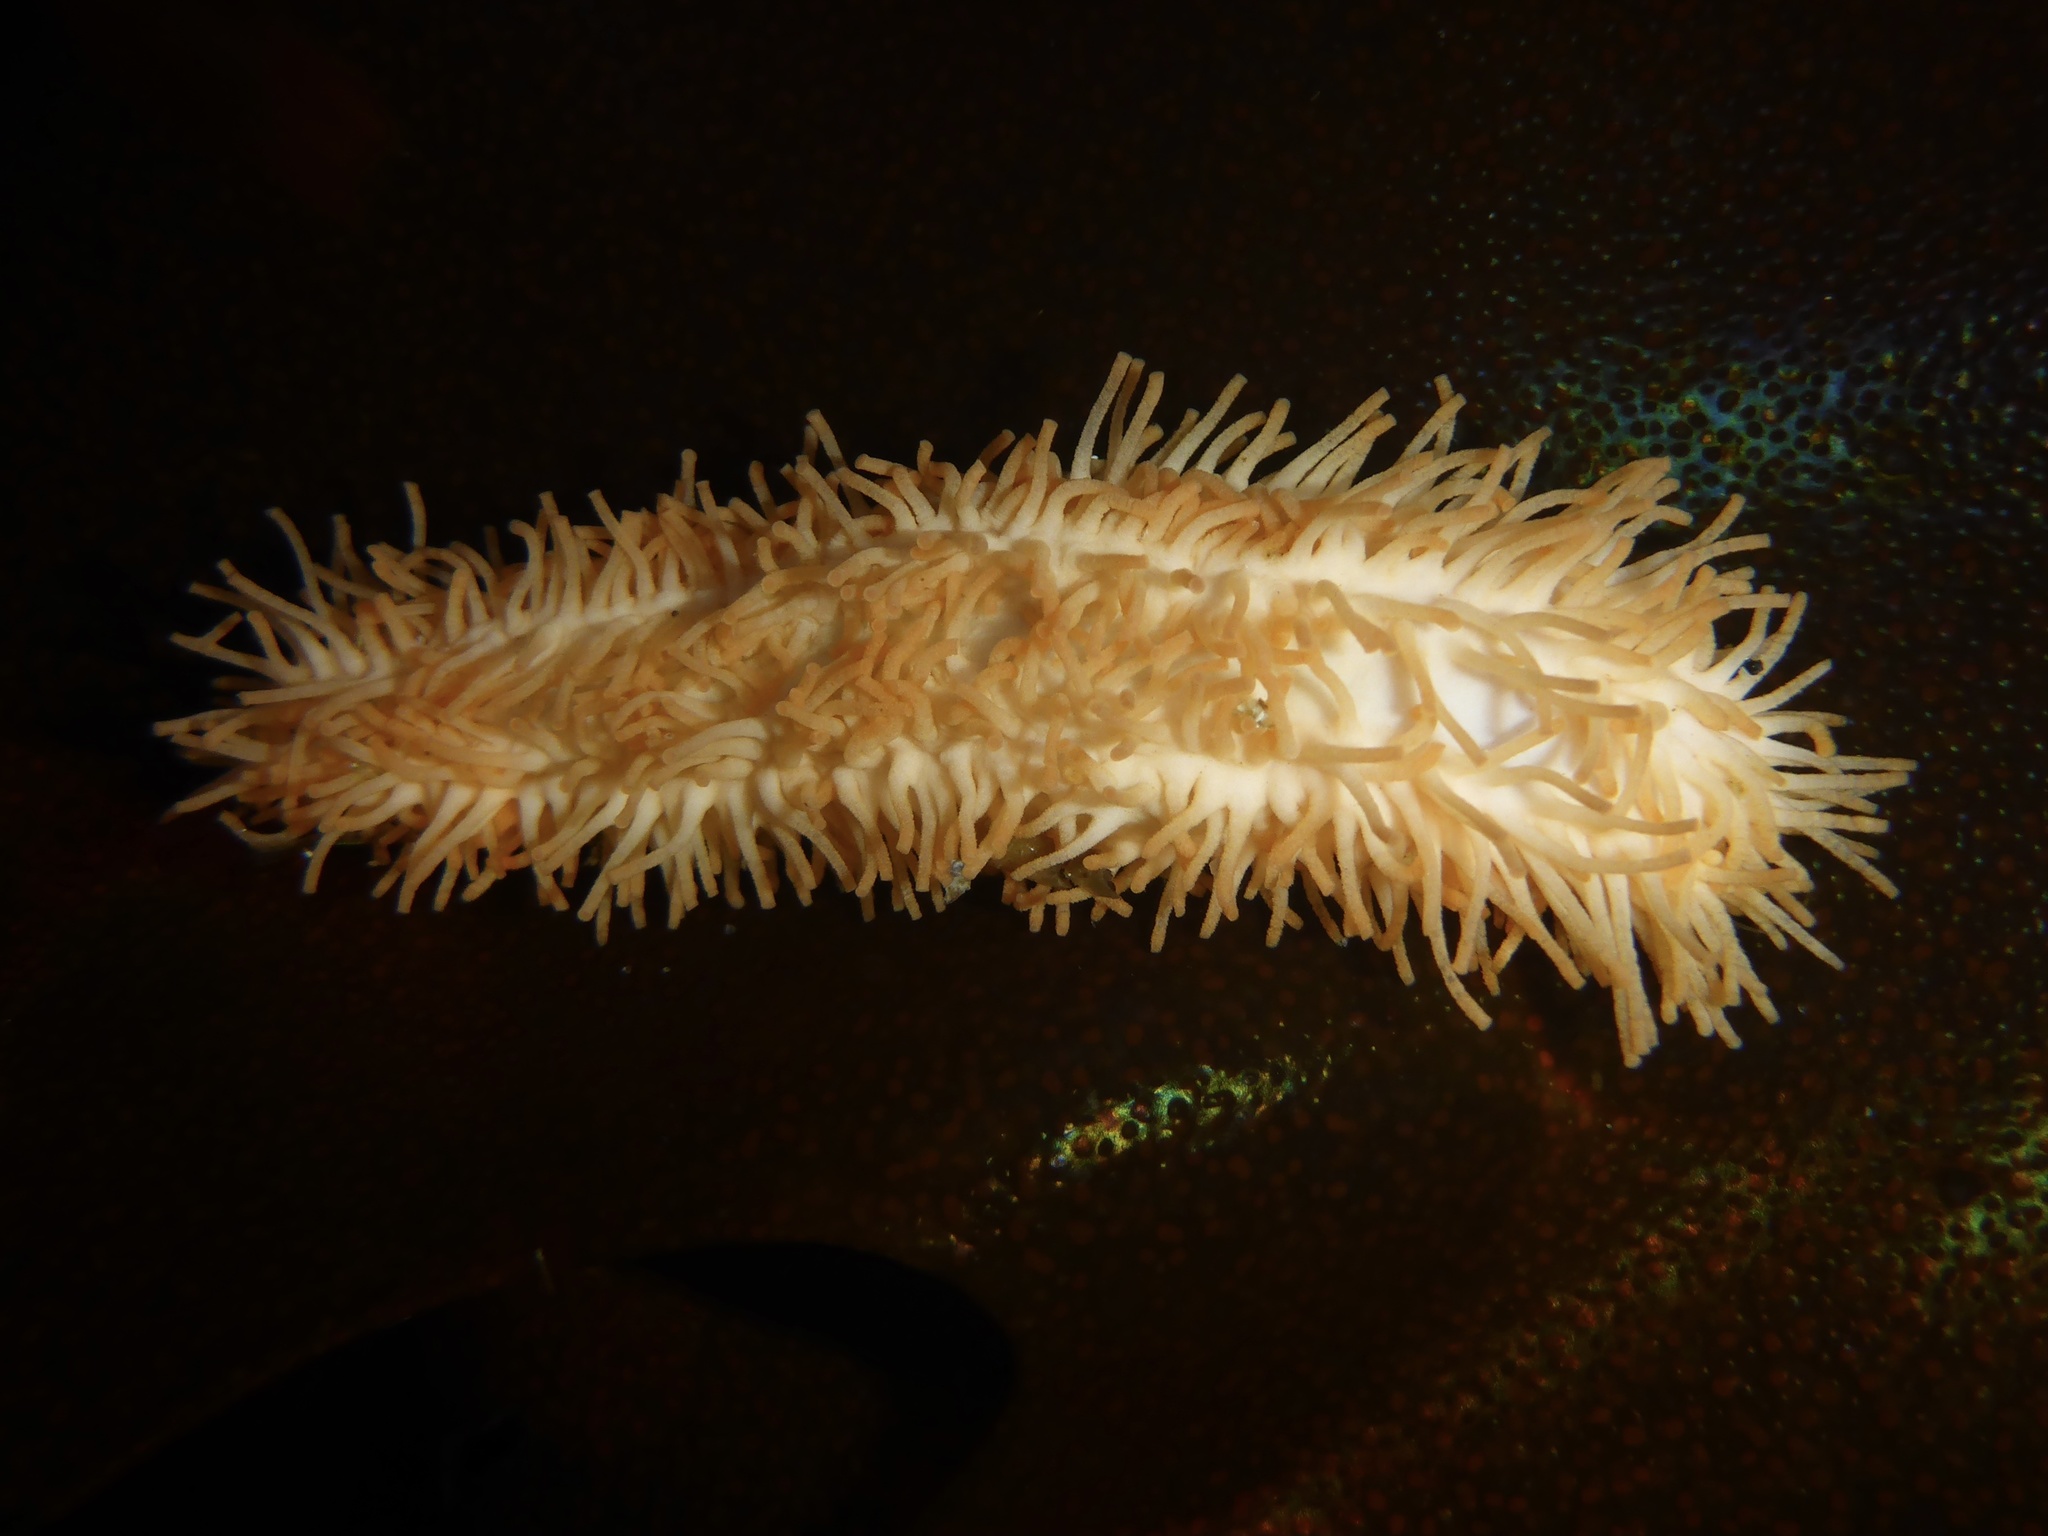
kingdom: Animalia
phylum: Echinodermata
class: Holothuroidea
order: Dendrochirotida
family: Sclerodactylidae
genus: Eupentacta
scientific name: Eupentacta quinquesemita
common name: Pentamerous sea cucumber
